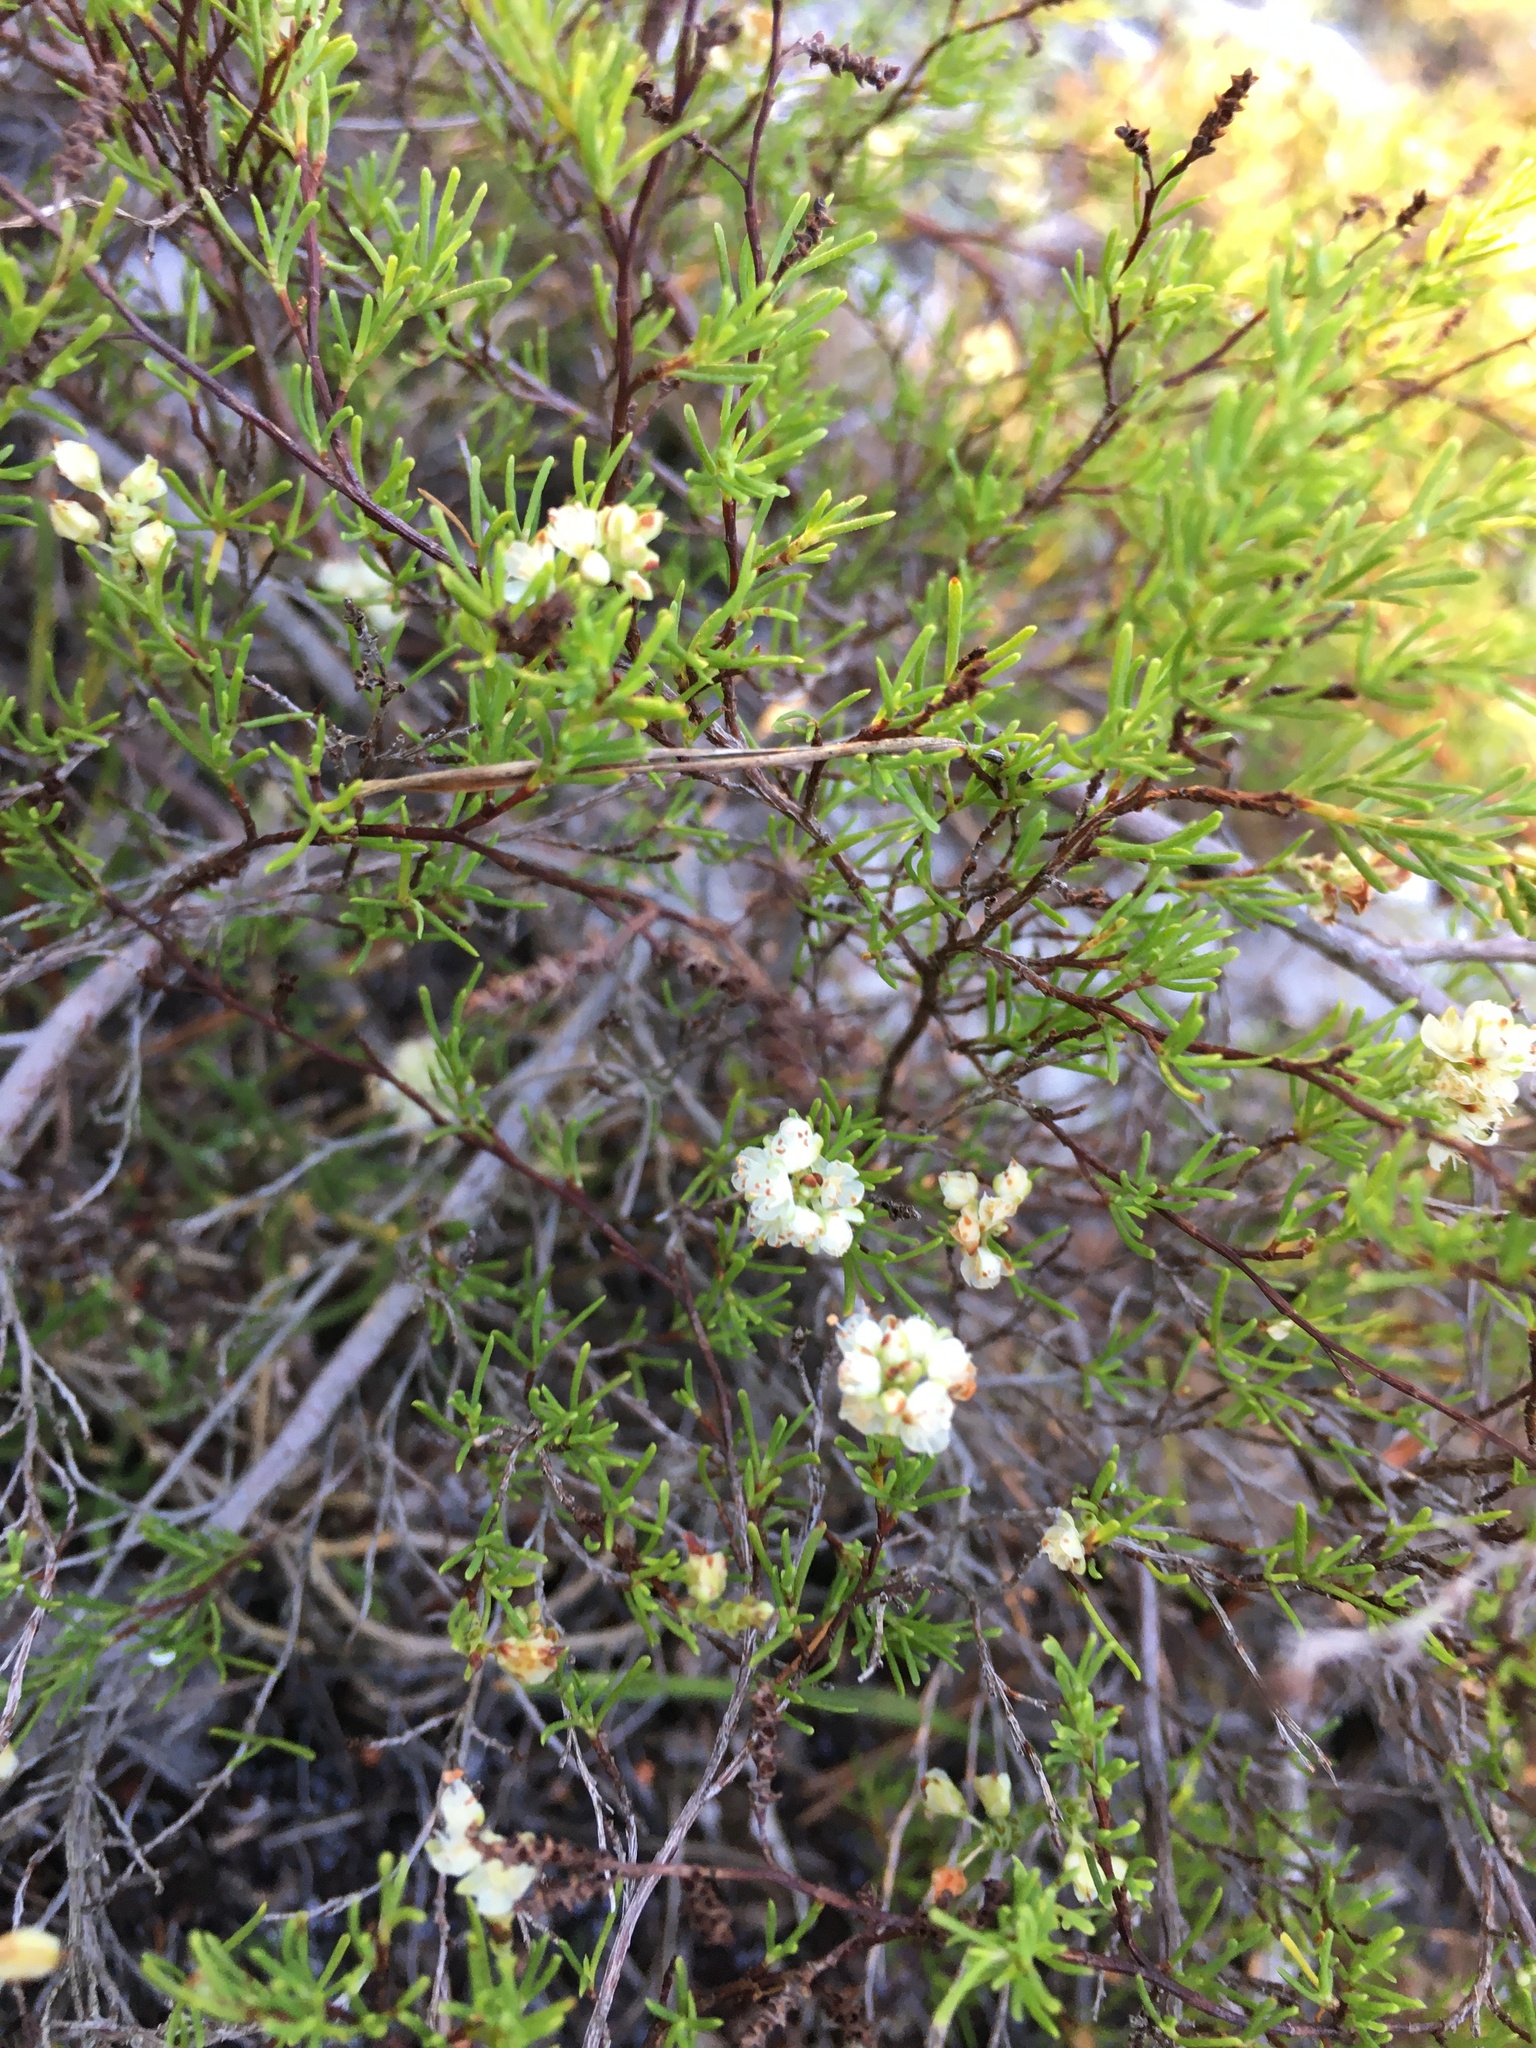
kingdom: Plantae
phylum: Tracheophyta
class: Magnoliopsida
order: Caryophyllales
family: Polygonaceae
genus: Polygonella
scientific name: Polygonella myriophylla
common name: Sandlace
